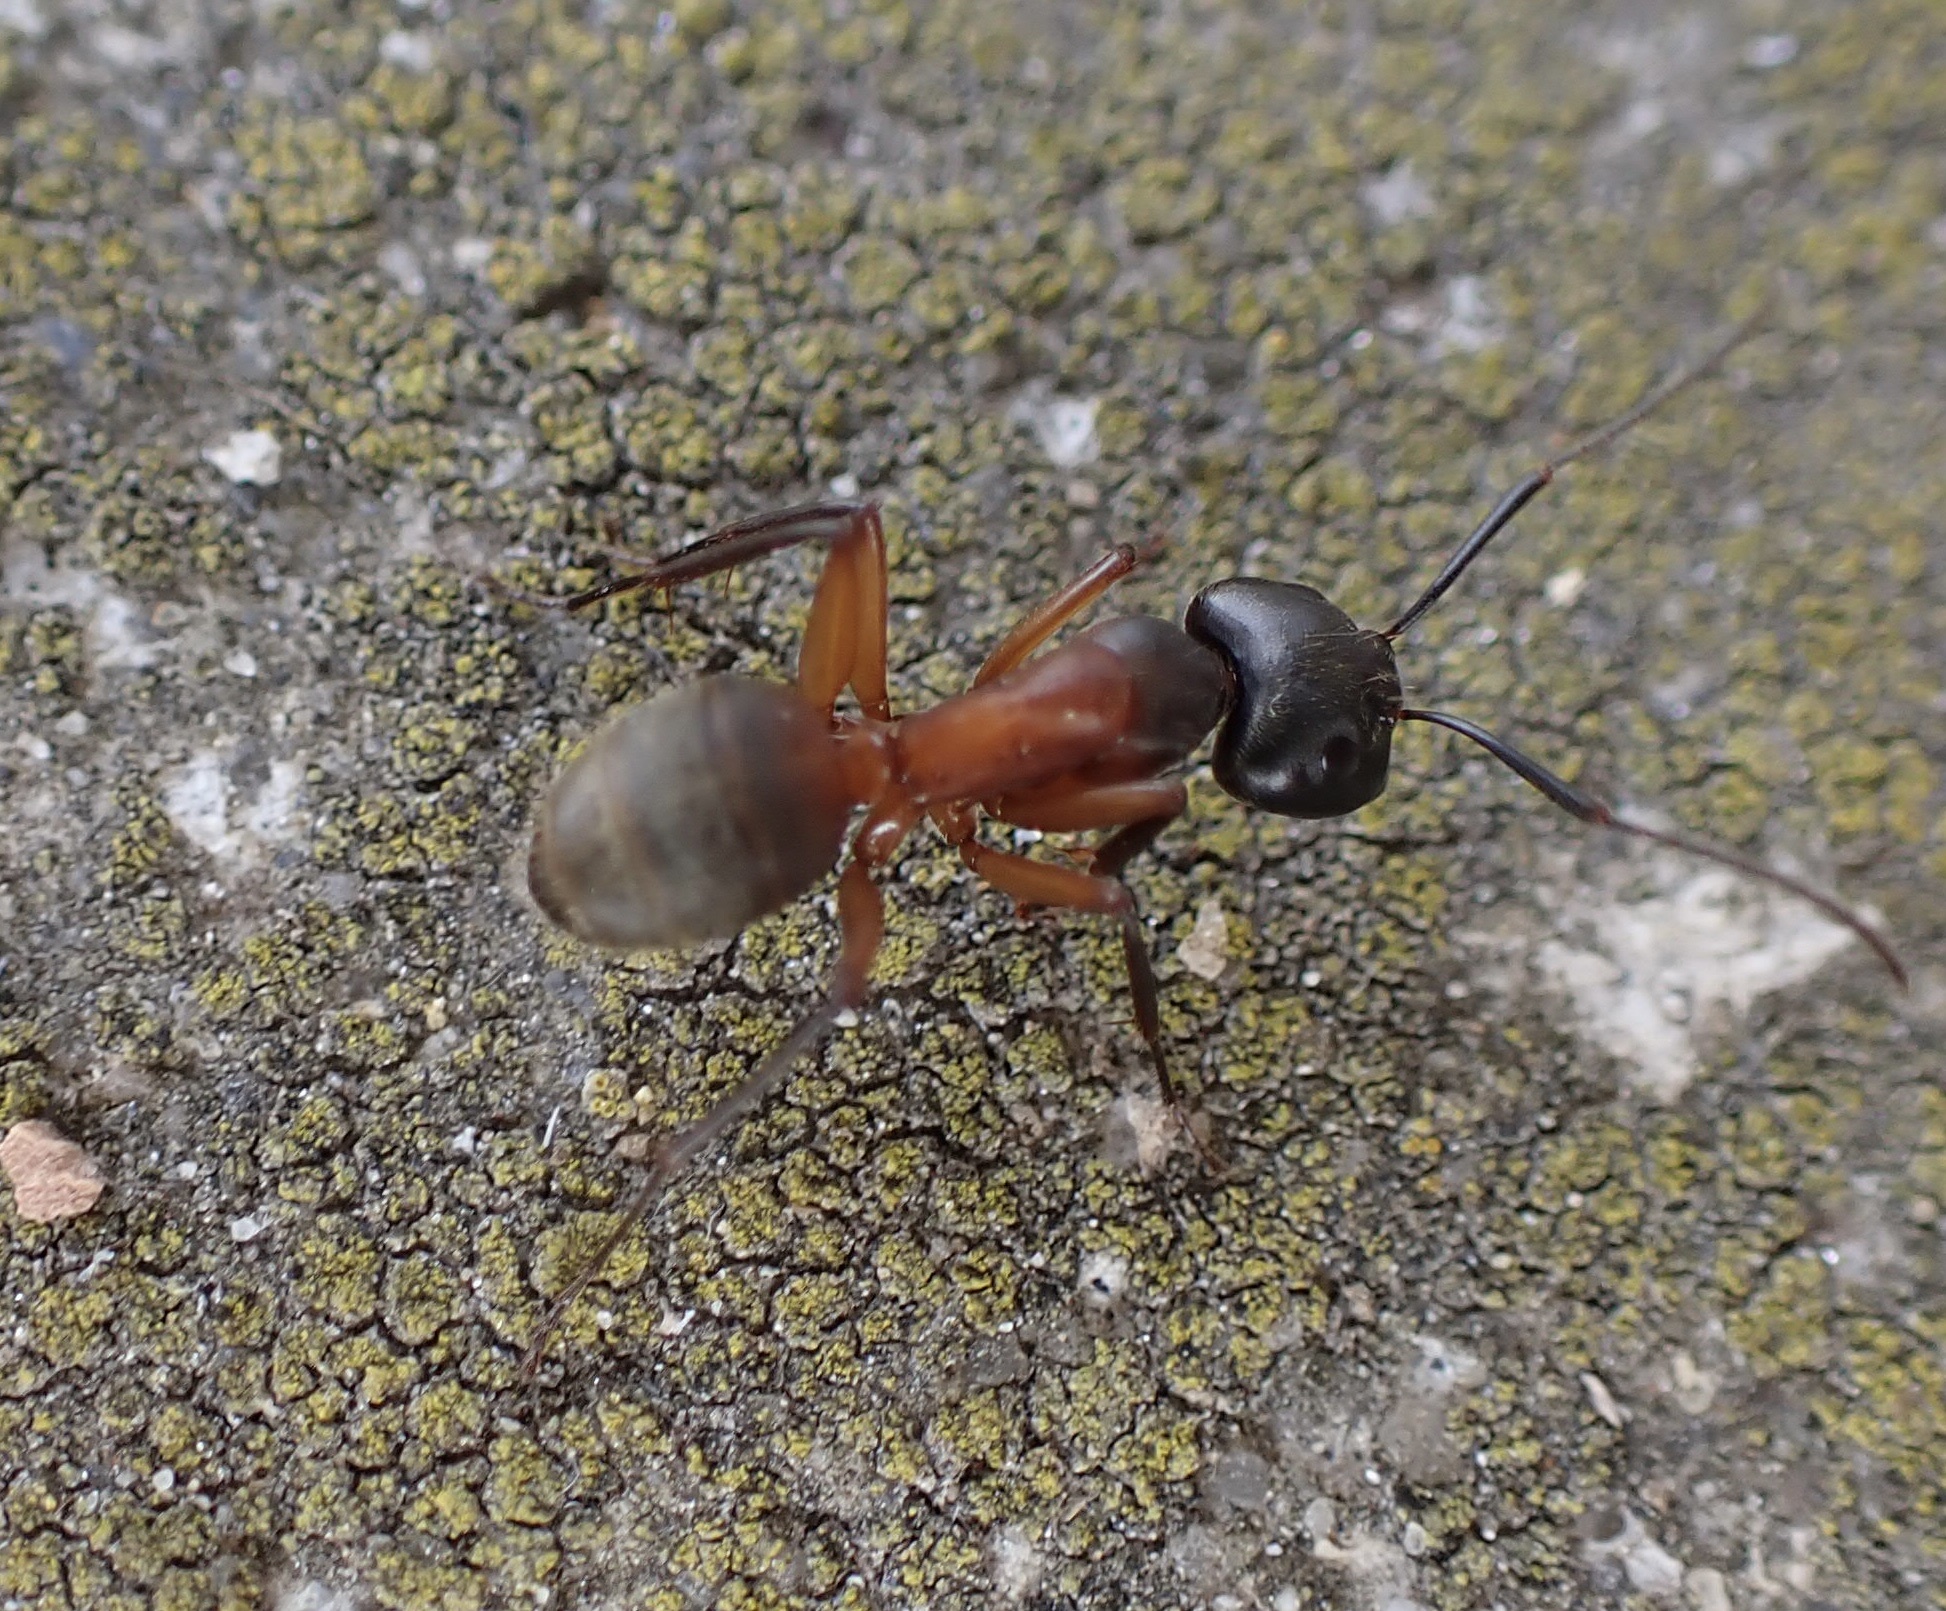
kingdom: Animalia
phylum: Arthropoda
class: Insecta
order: Hymenoptera
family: Formicidae
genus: Camponotus
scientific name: Camponotus chromaiodes
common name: Red carpenter ant
